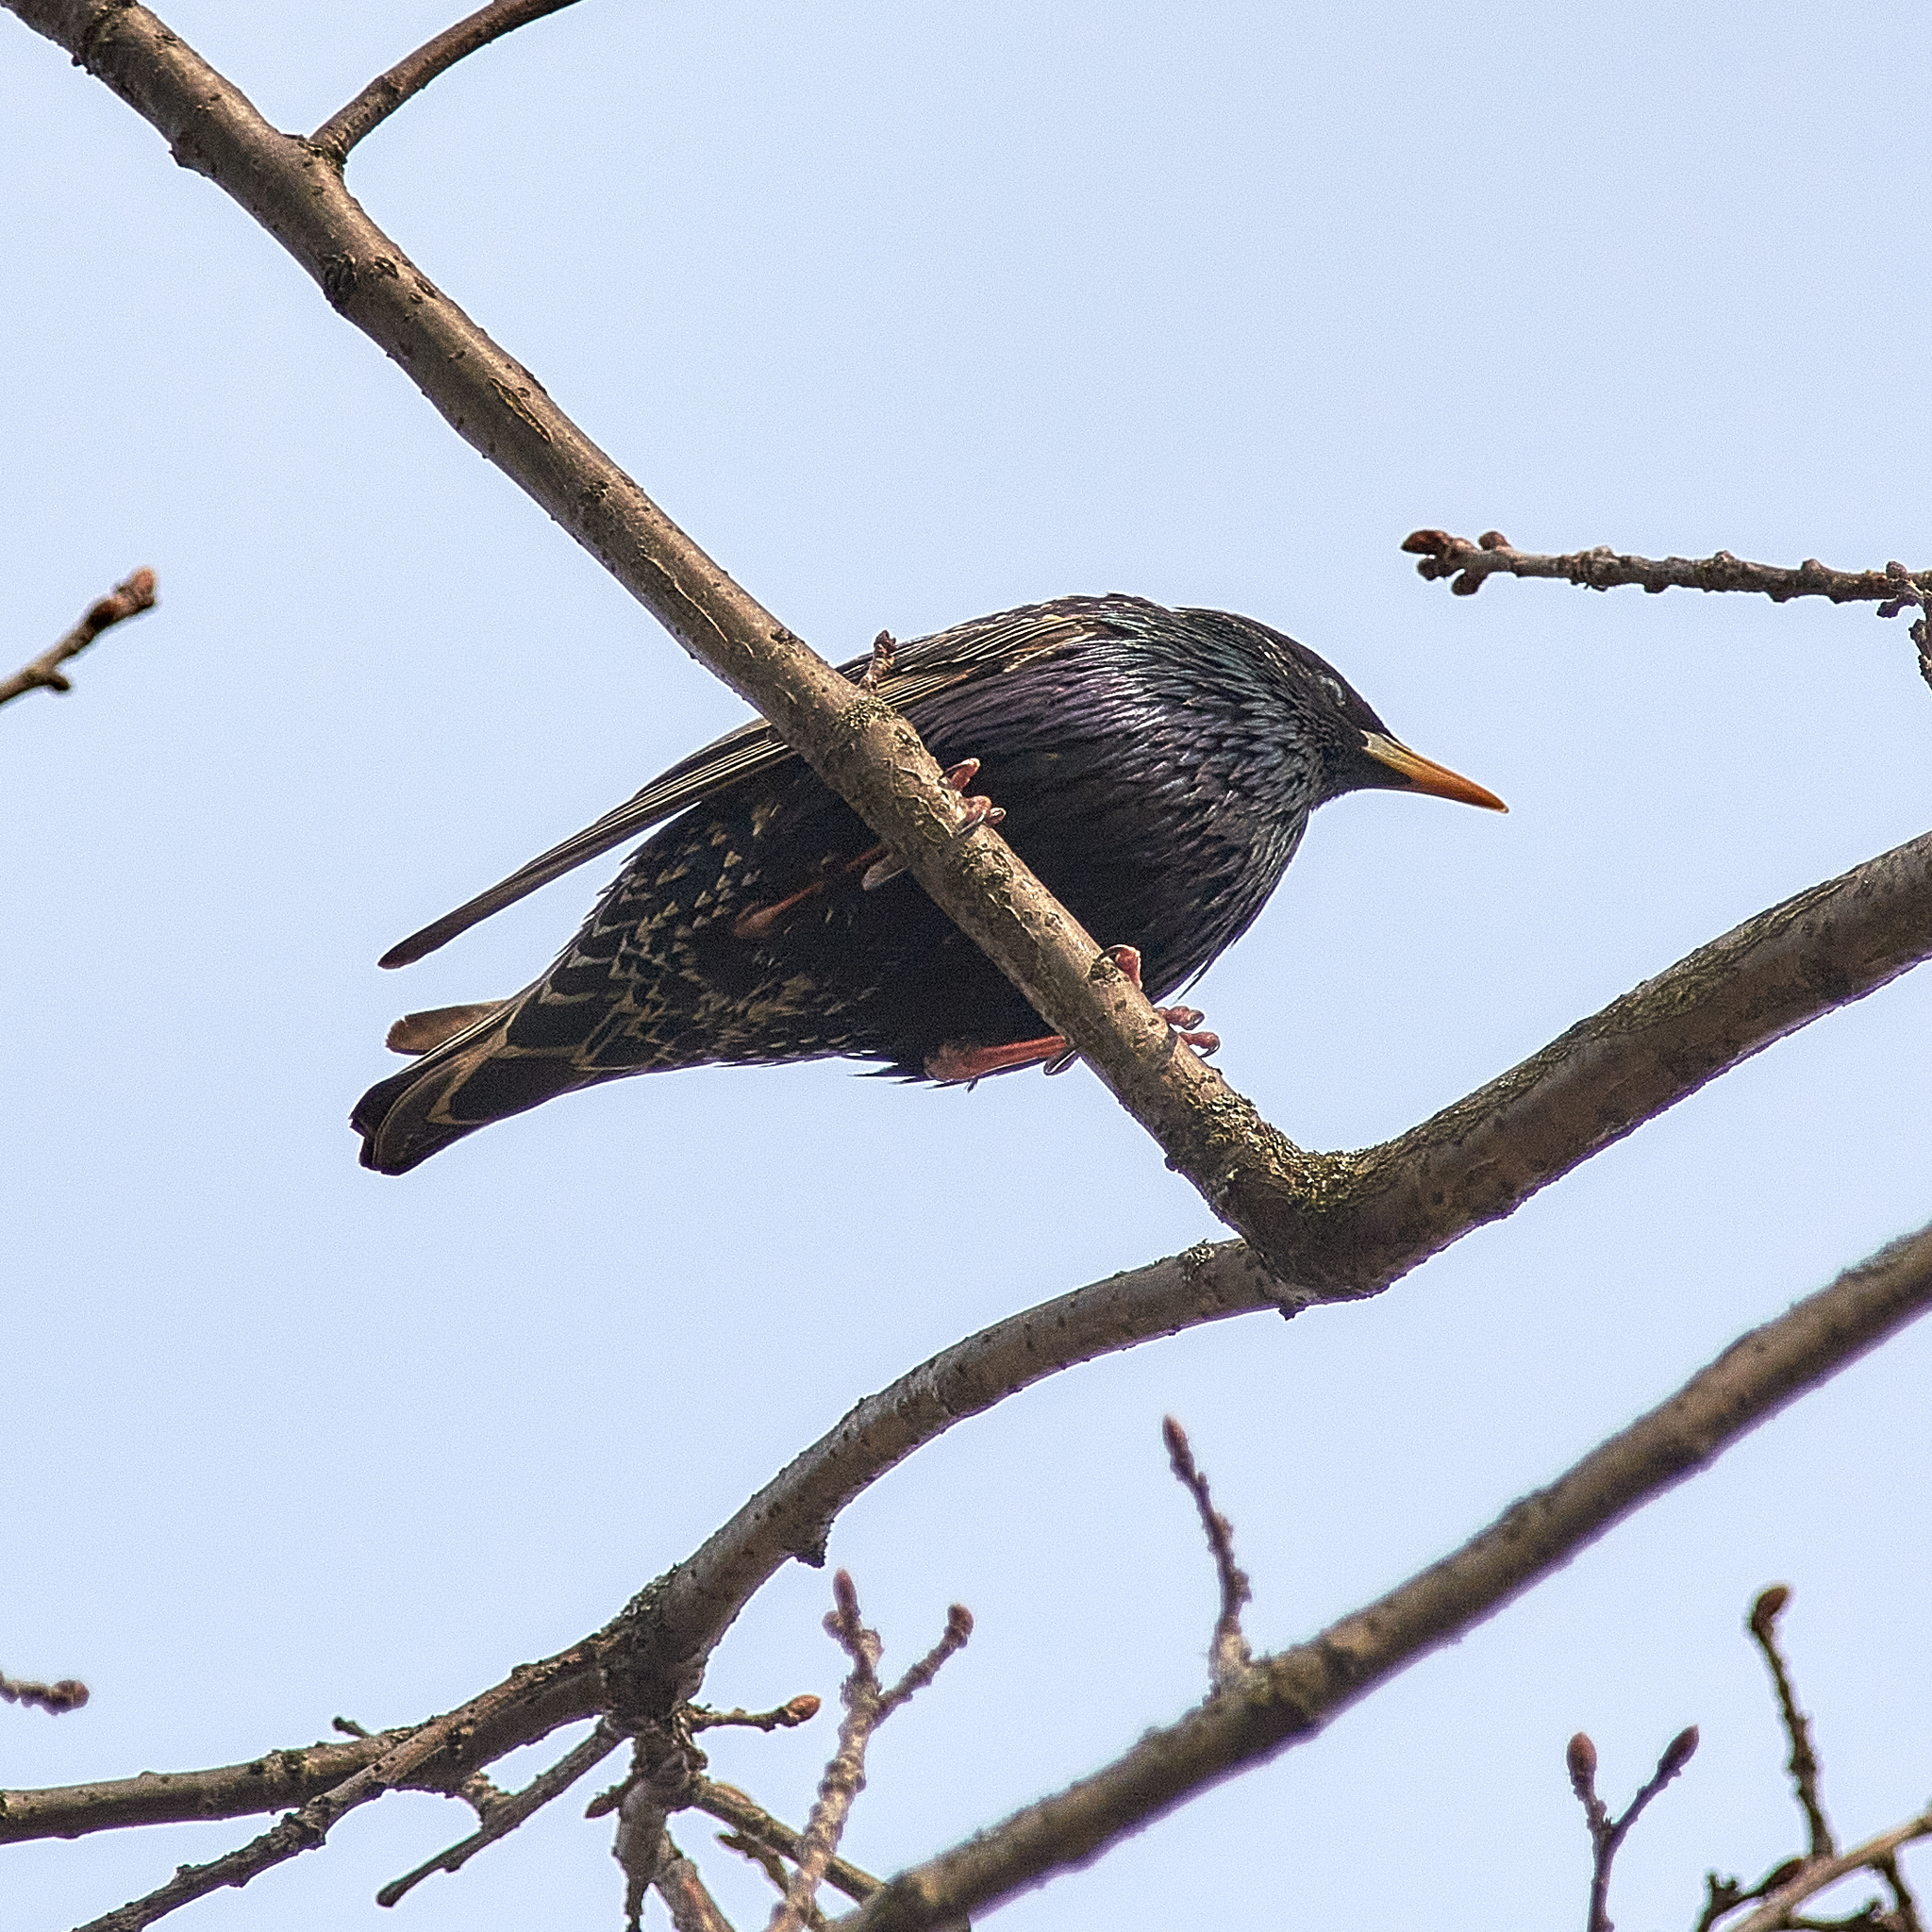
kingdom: Animalia
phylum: Chordata
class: Aves
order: Passeriformes
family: Sturnidae
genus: Sturnus
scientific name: Sturnus vulgaris
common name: Common starling
